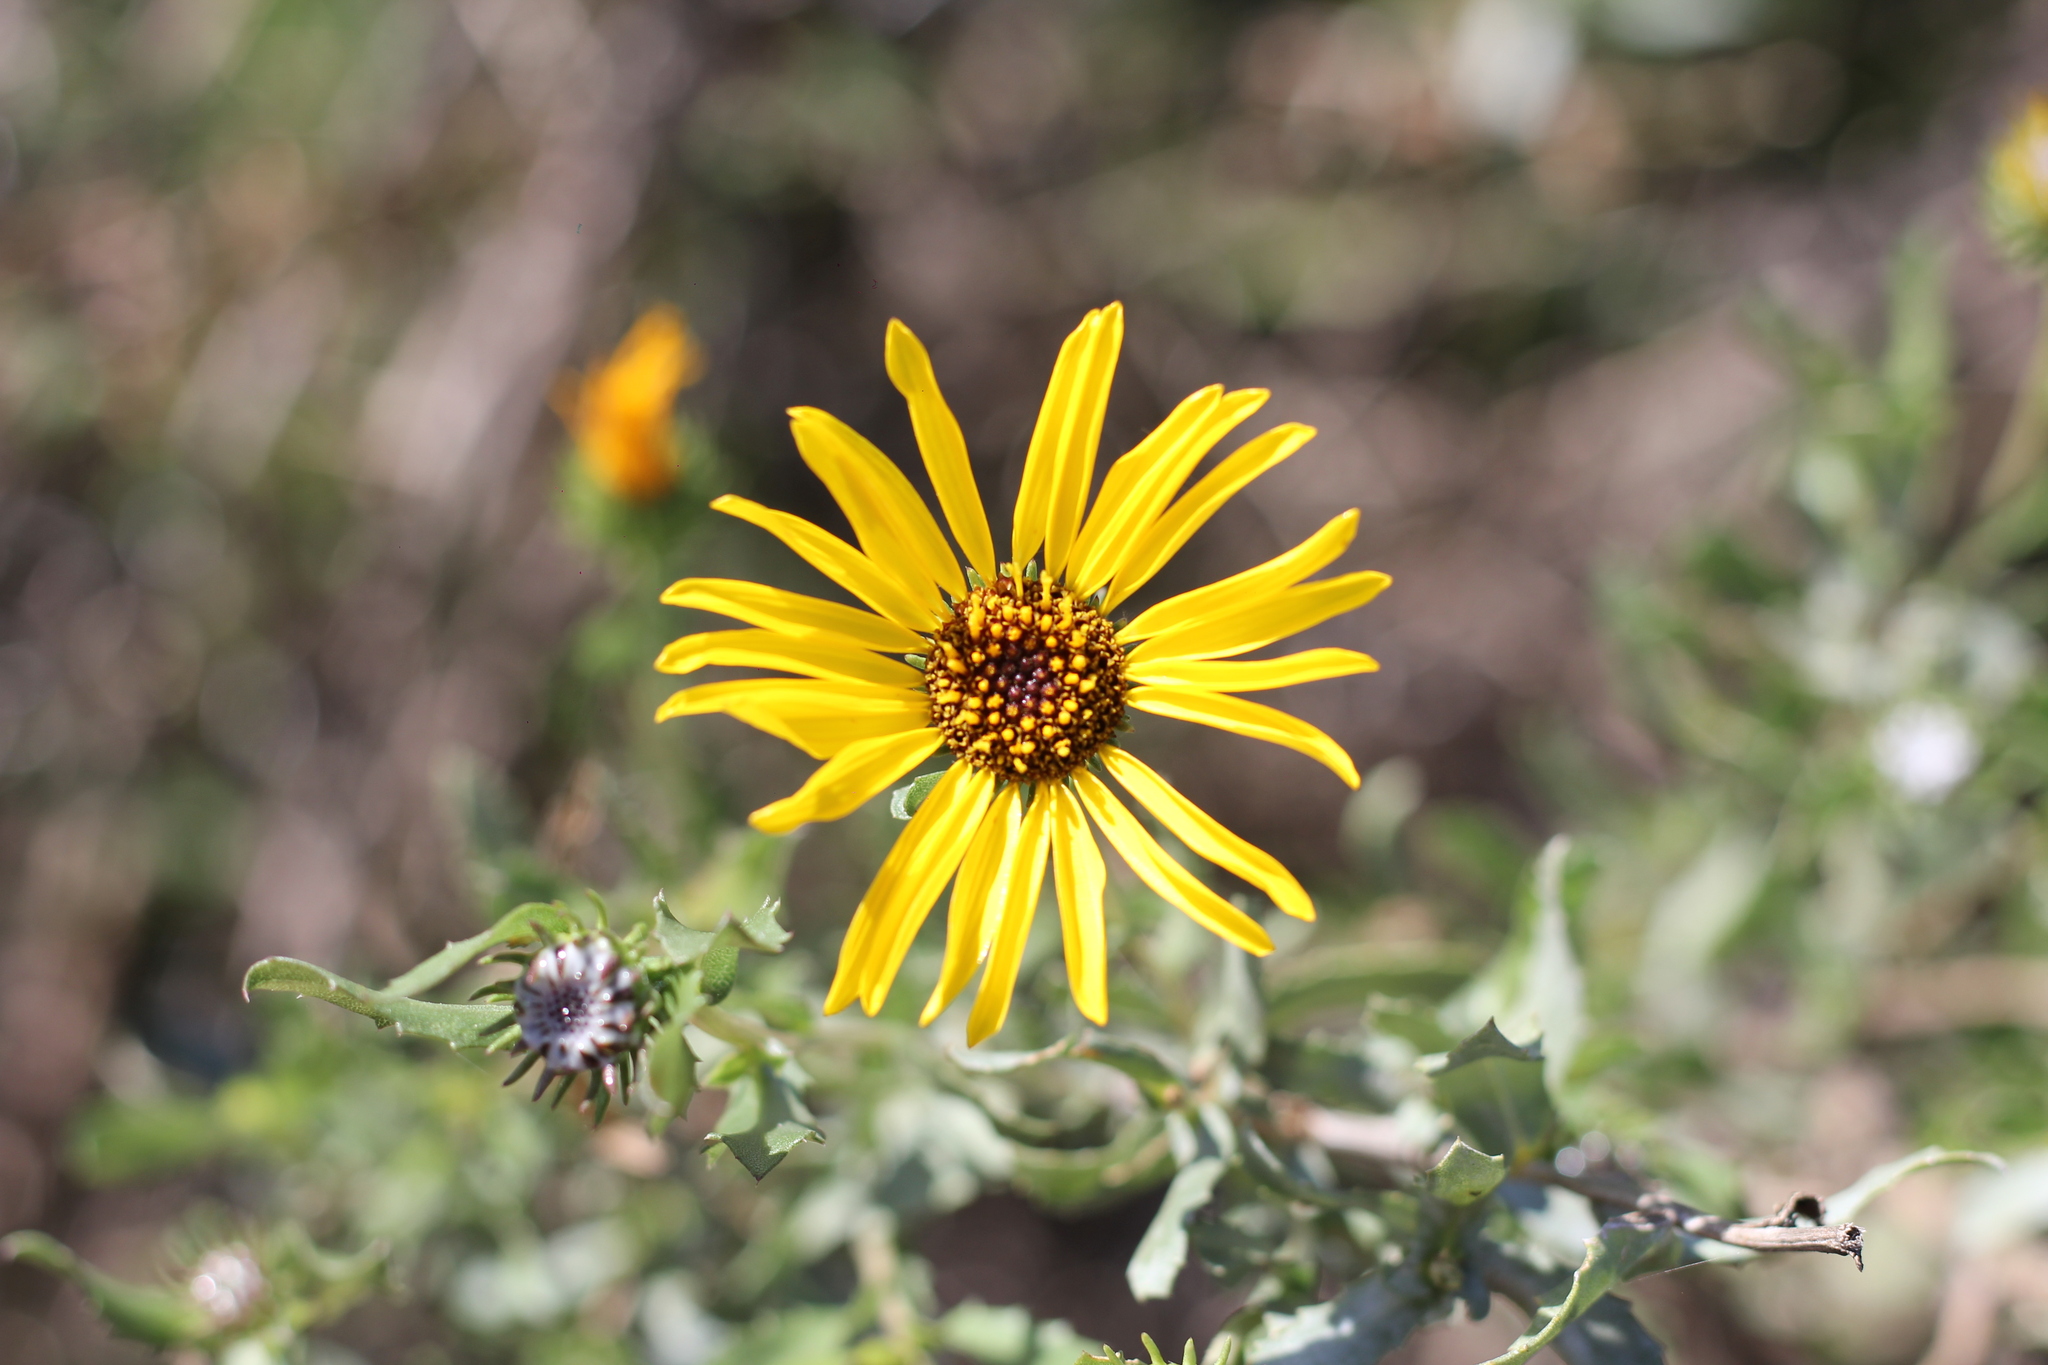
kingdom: Plantae
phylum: Tracheophyta
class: Magnoliopsida
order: Asterales
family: Asteraceae
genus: Grindelia
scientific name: Grindelia pulchella
